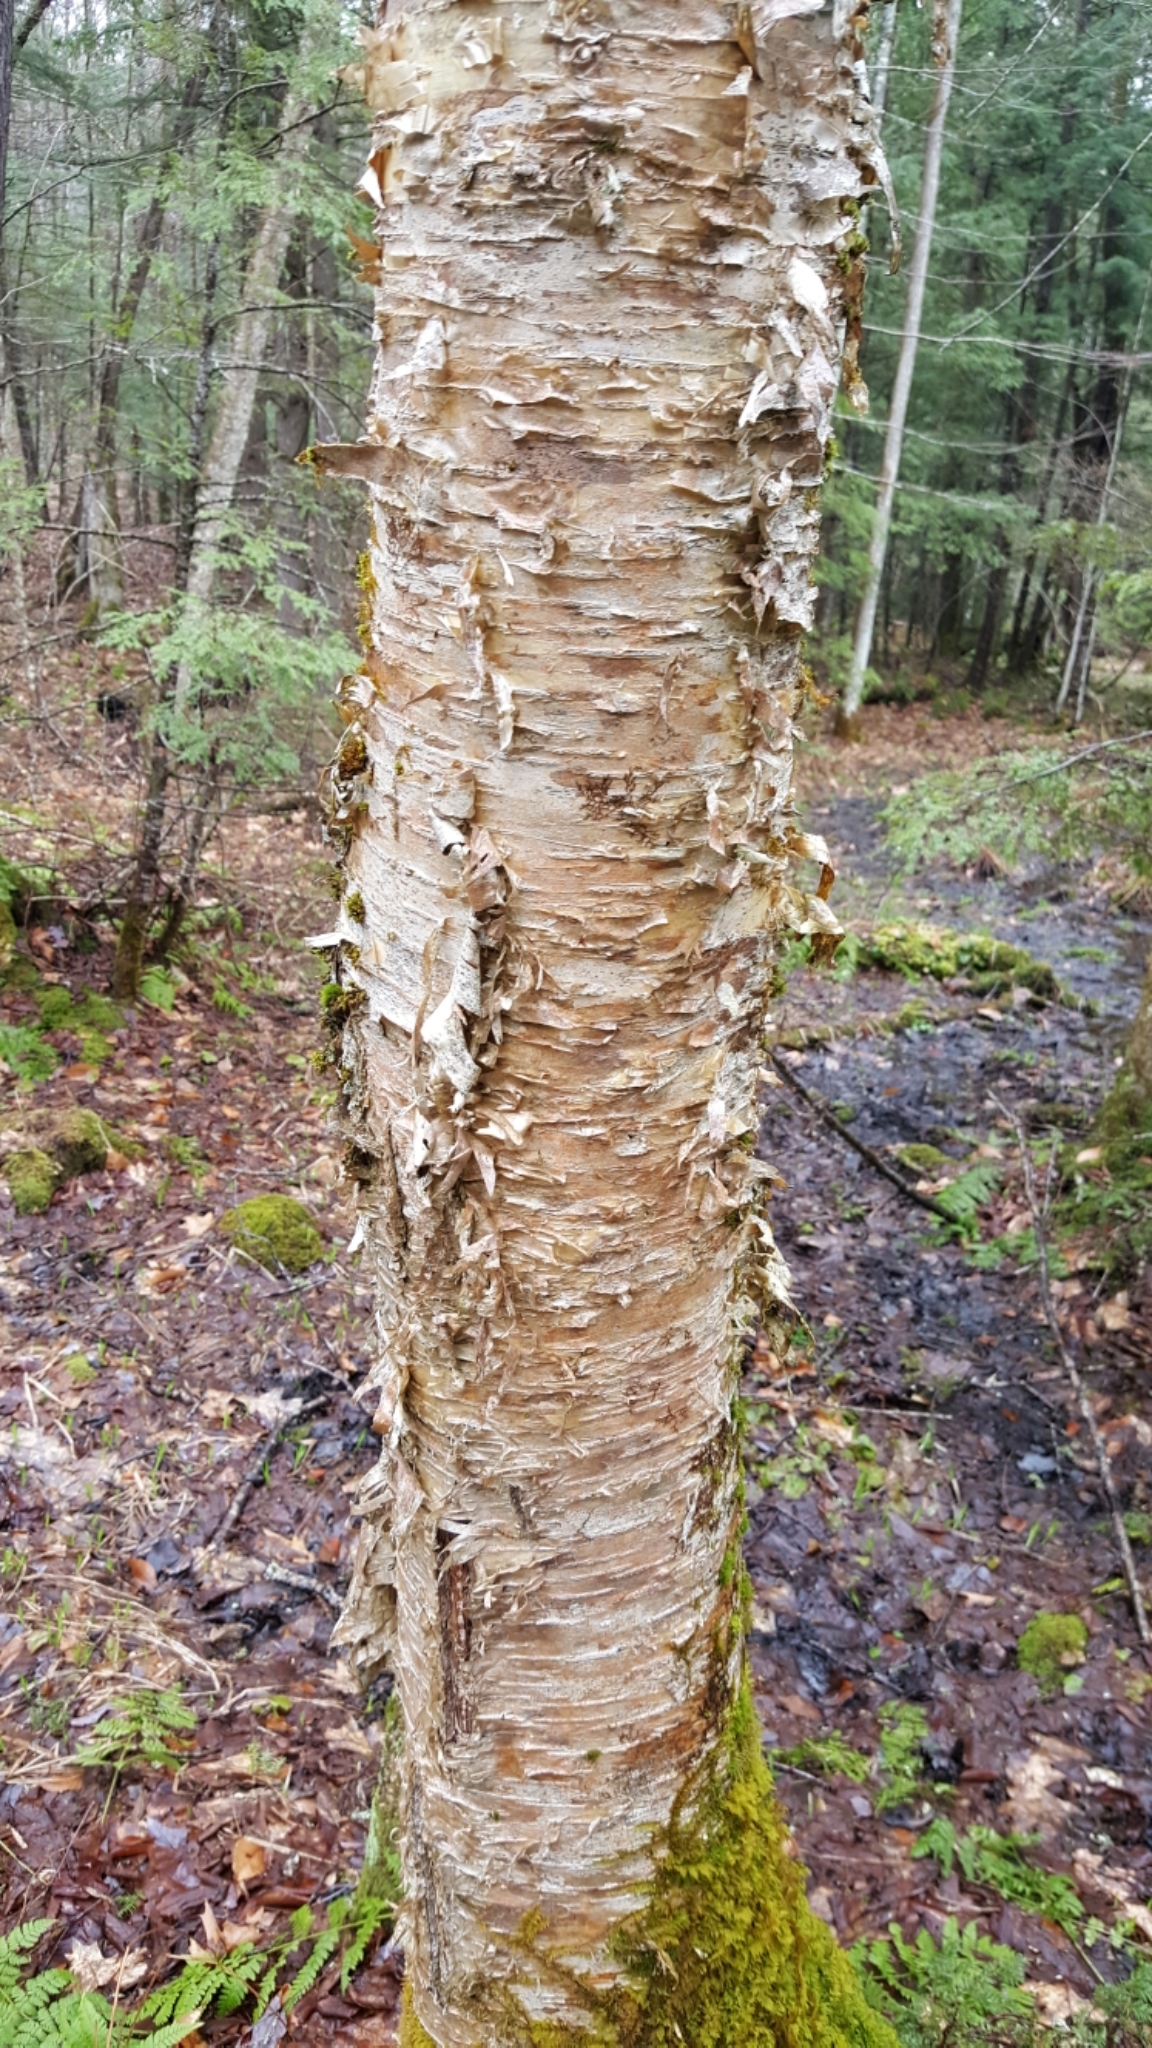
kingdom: Plantae
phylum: Tracheophyta
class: Magnoliopsida
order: Fagales
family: Betulaceae
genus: Betula
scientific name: Betula alleghaniensis
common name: Yellow birch
